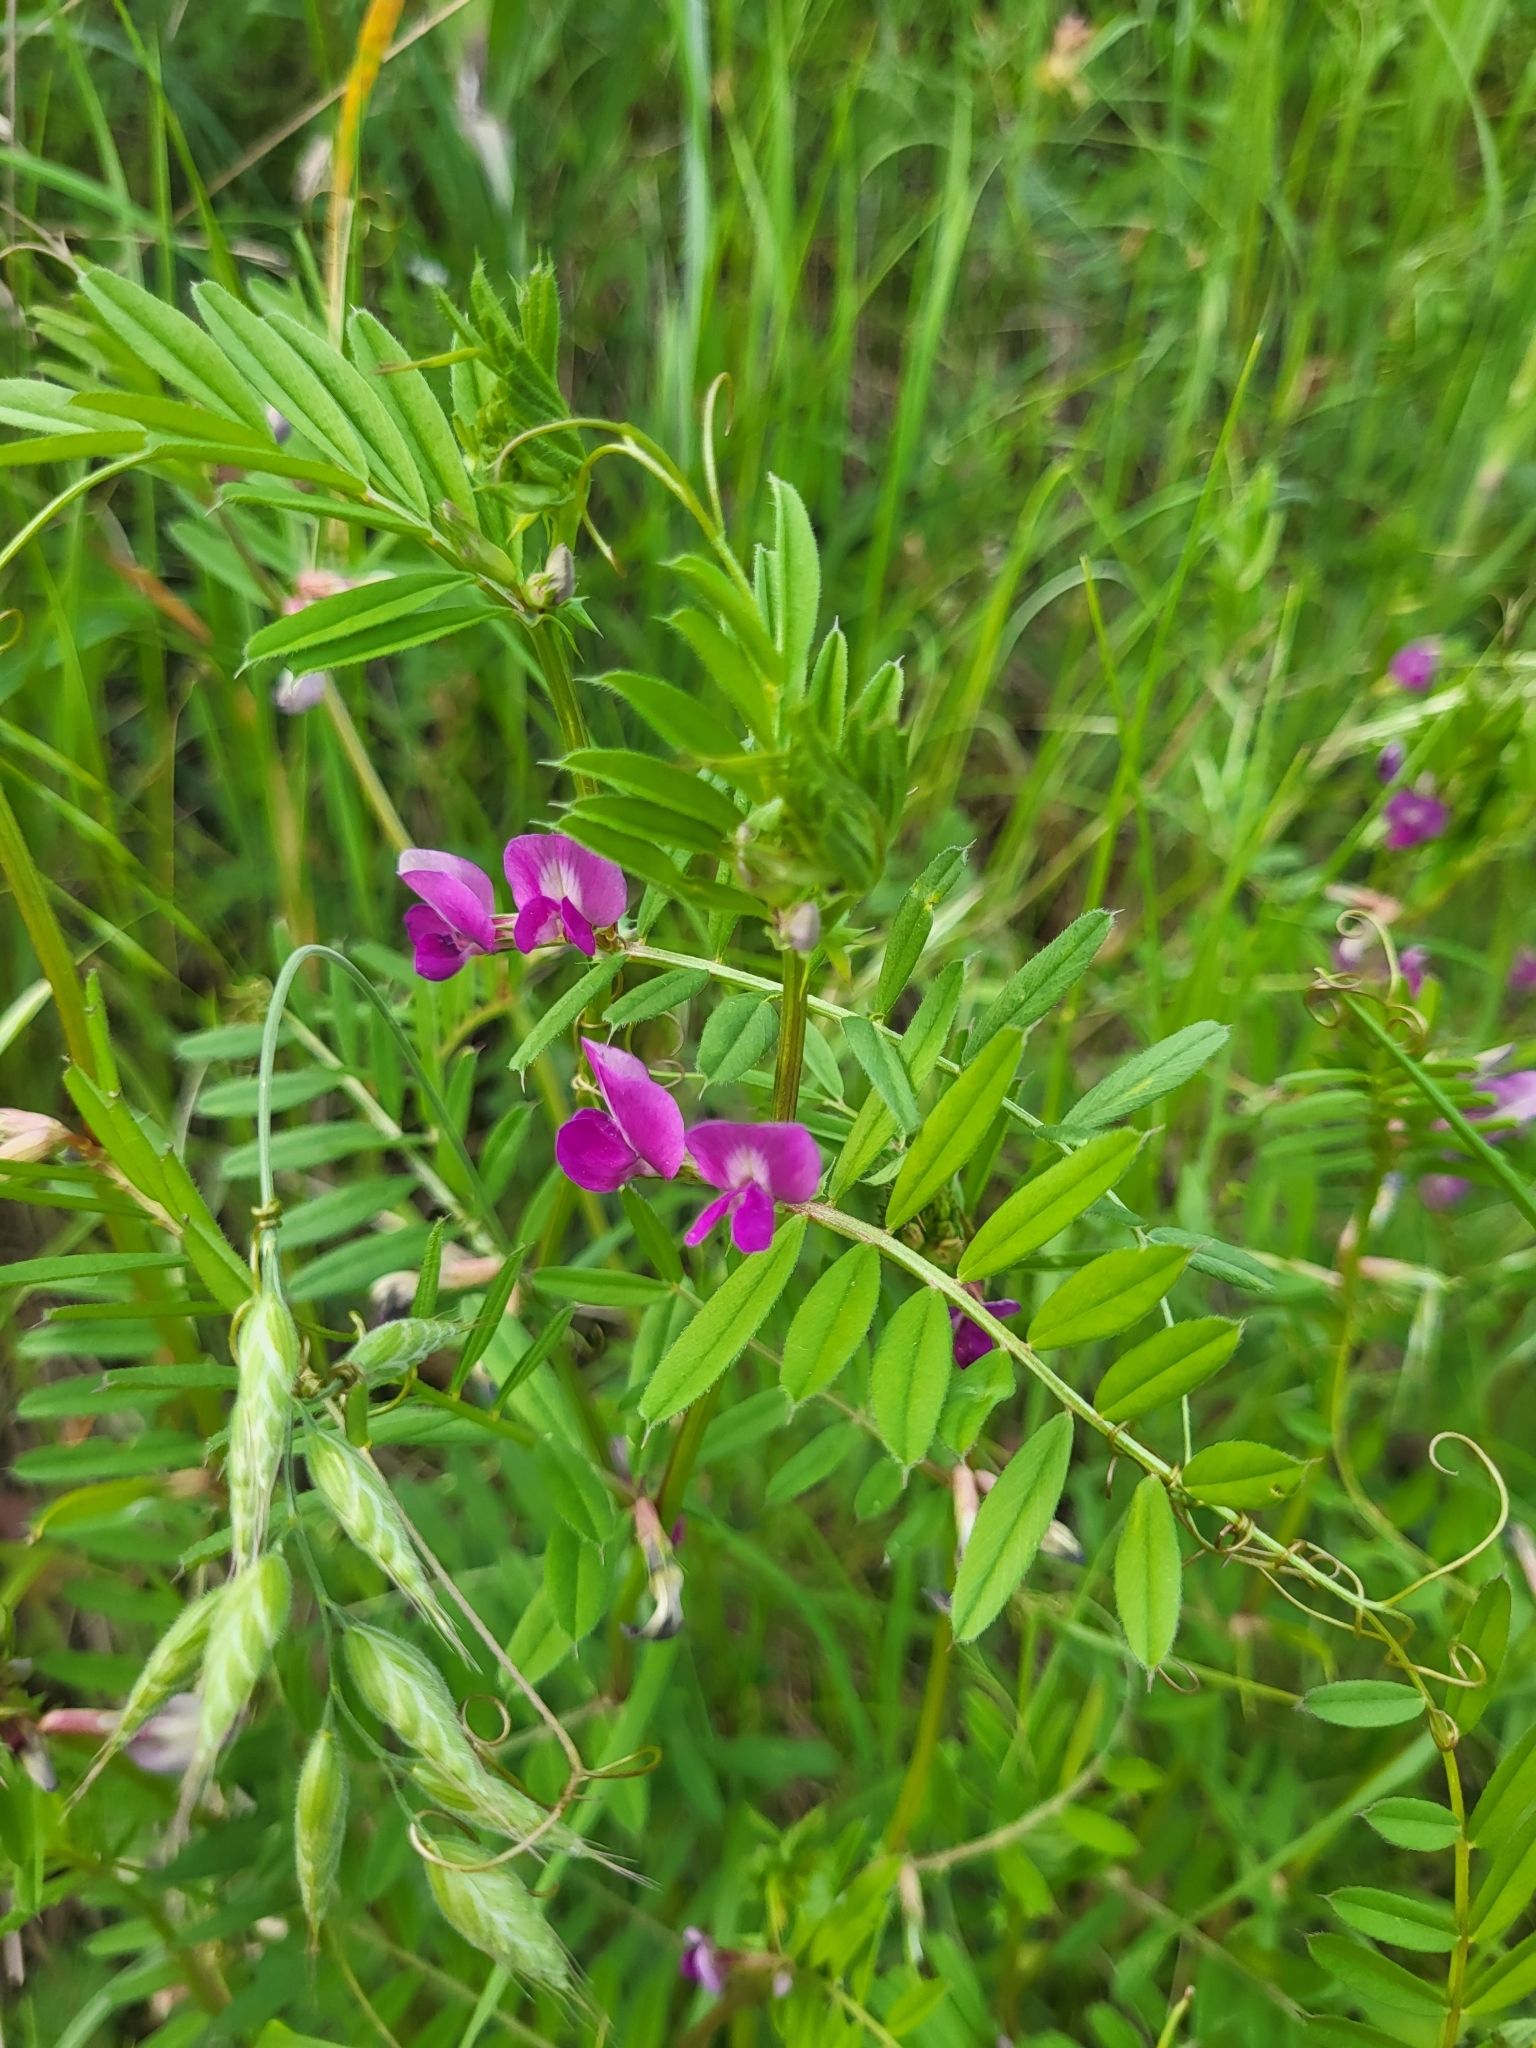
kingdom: Plantae
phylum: Tracheophyta
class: Magnoliopsida
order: Fabales
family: Fabaceae
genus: Vicia
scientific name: Vicia sativa
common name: Garden vetch
